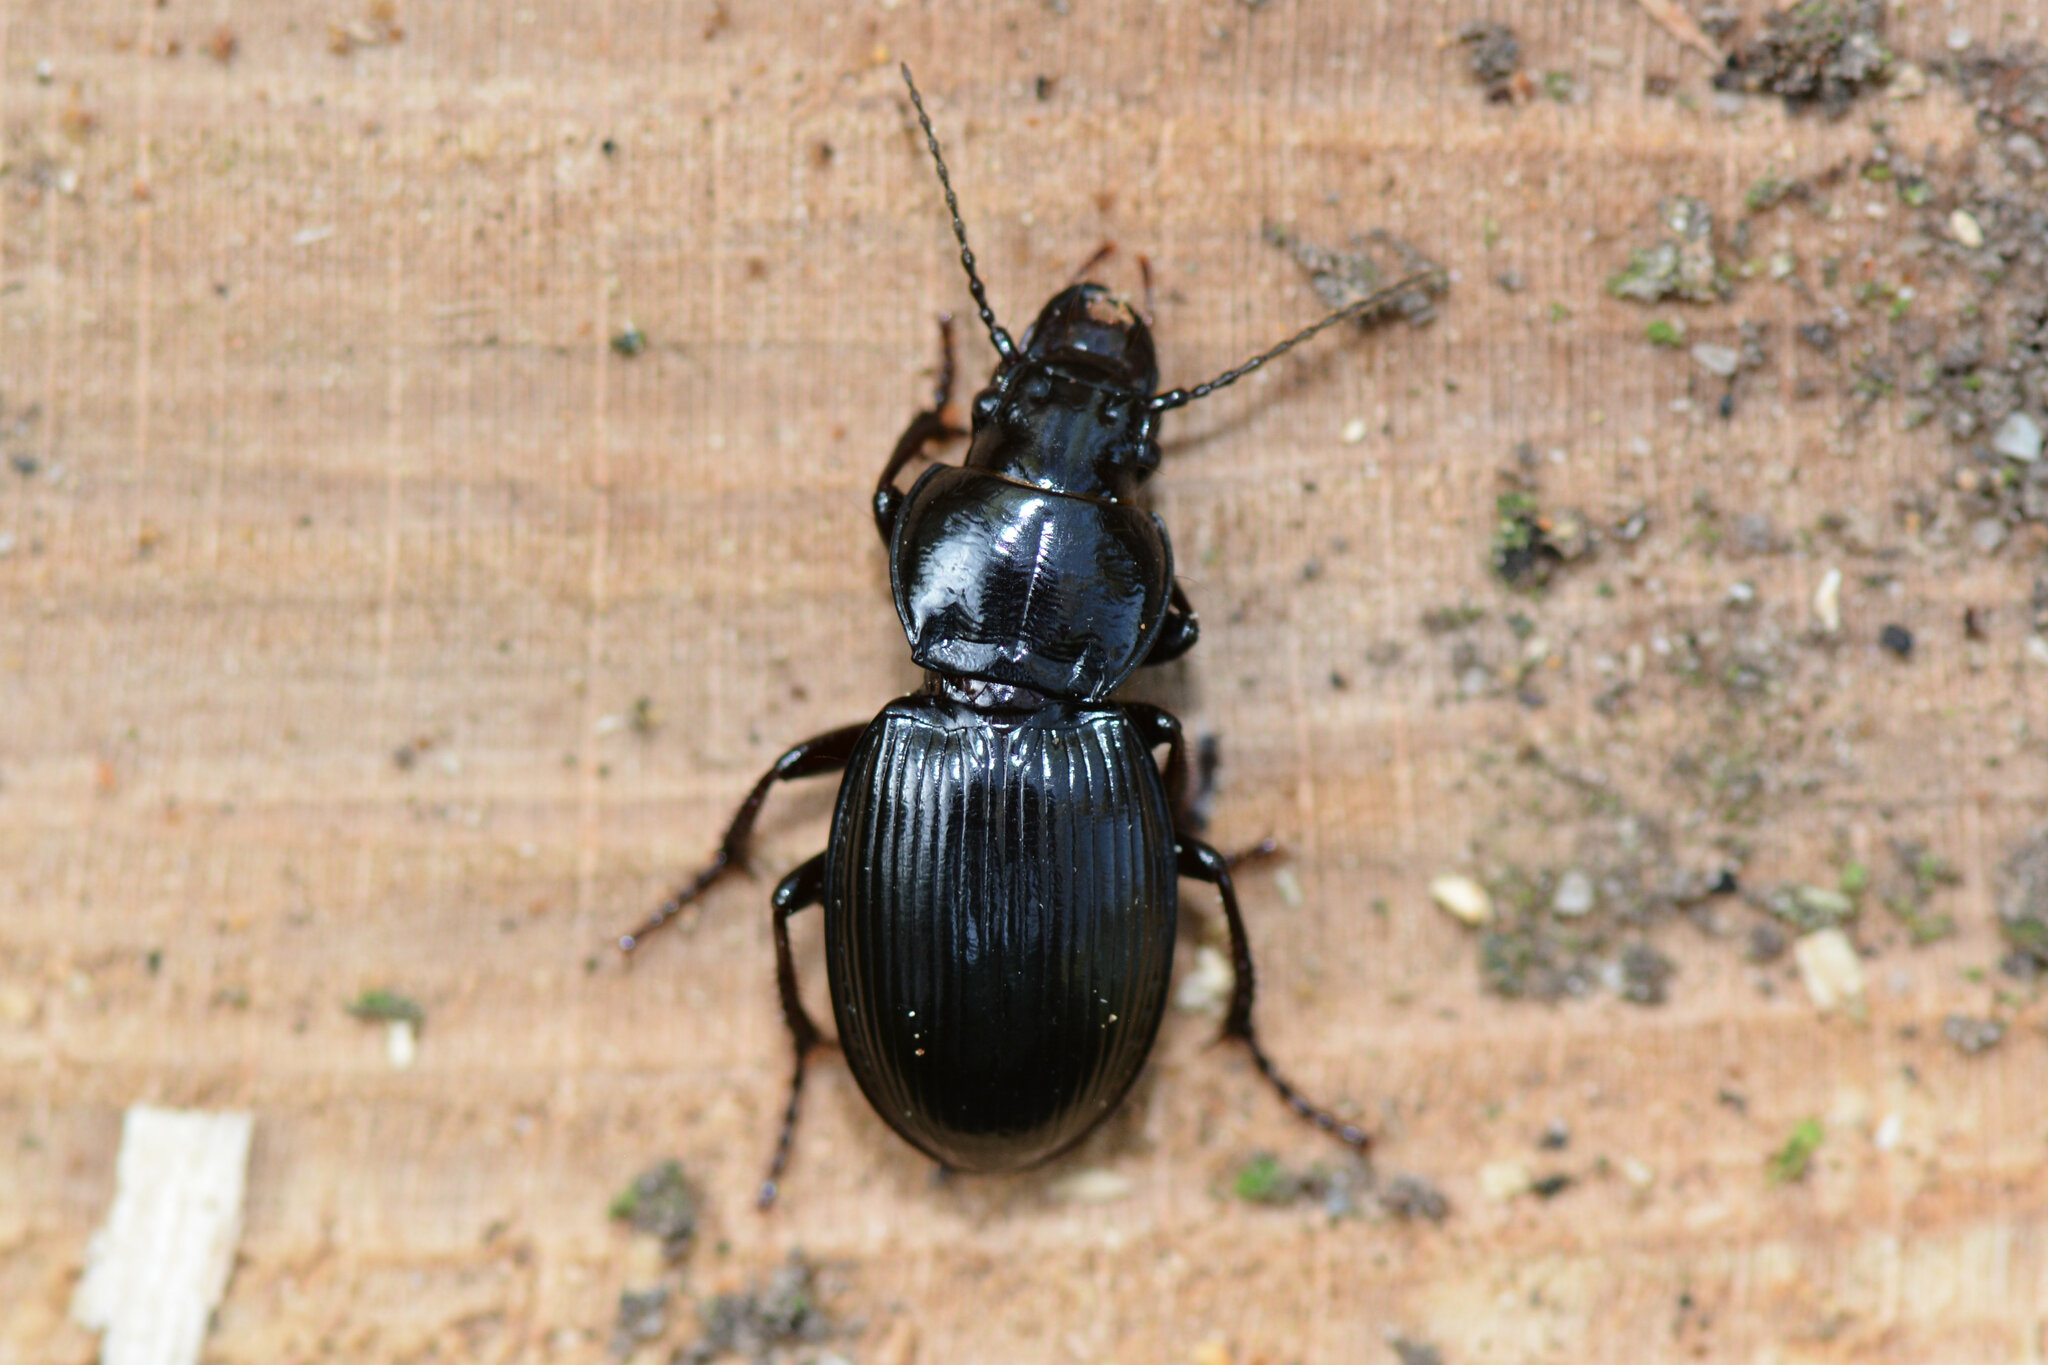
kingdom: Animalia
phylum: Arthropoda
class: Insecta
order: Coleoptera
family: Carabidae
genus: Molops
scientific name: Molops elatus
